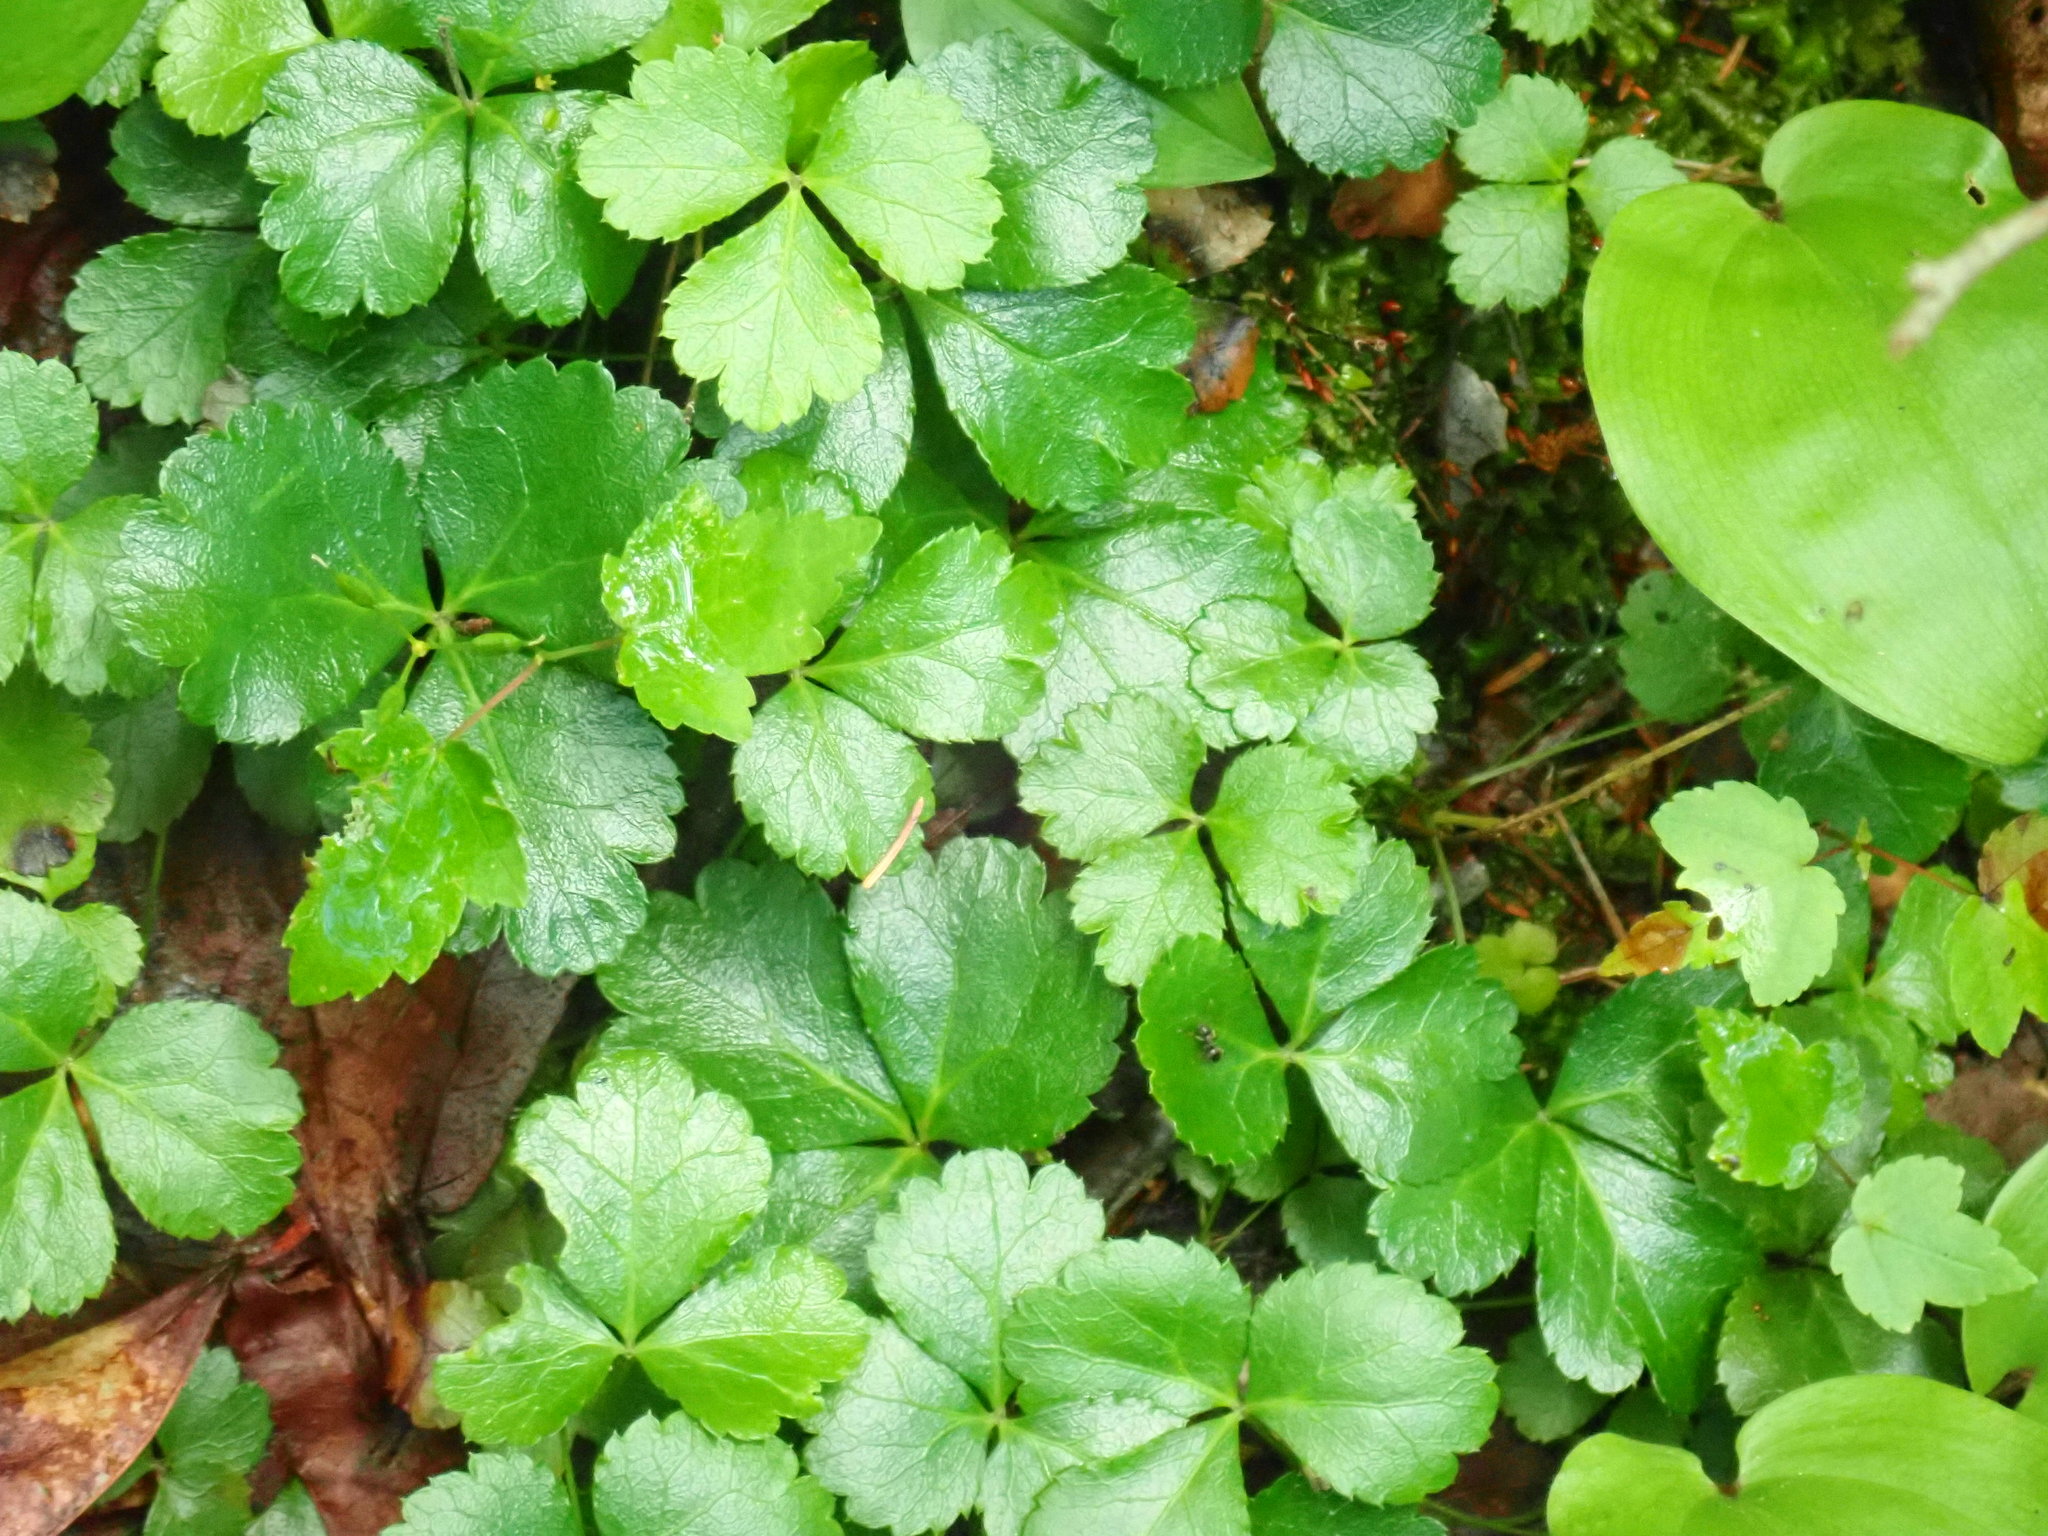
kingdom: Plantae
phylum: Tracheophyta
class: Magnoliopsida
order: Ranunculales
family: Ranunculaceae
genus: Coptis
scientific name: Coptis trifolia
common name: Canker-root
